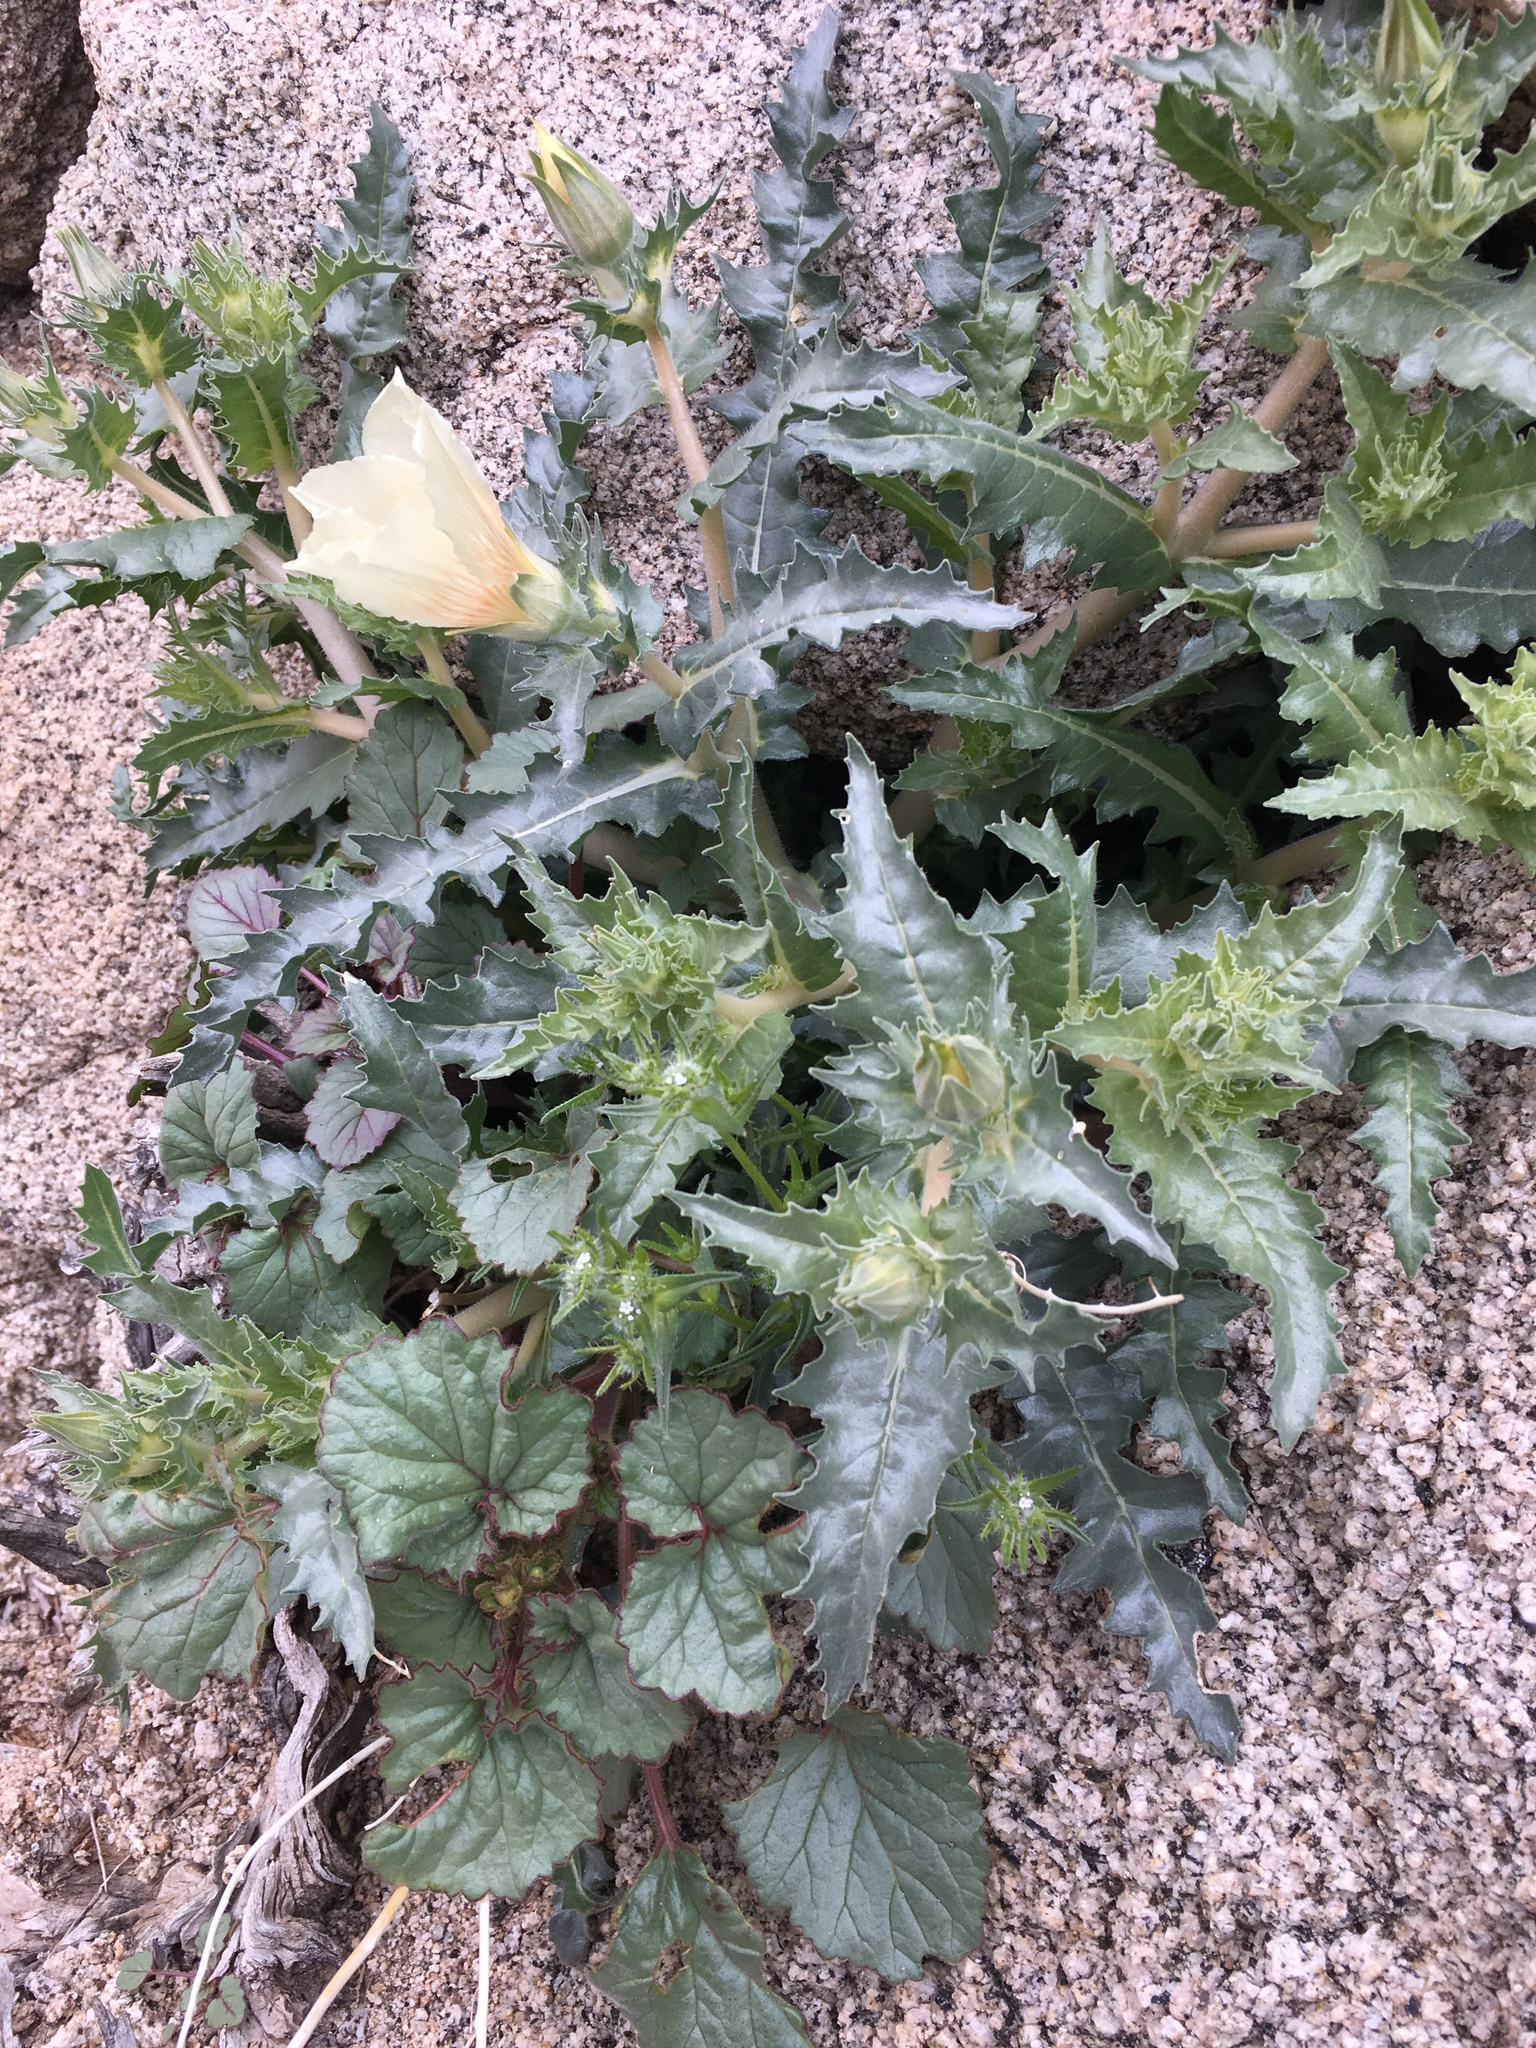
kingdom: Plantae
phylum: Tracheophyta
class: Magnoliopsida
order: Cornales
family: Loasaceae
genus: Mentzelia
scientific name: Mentzelia involucrata
